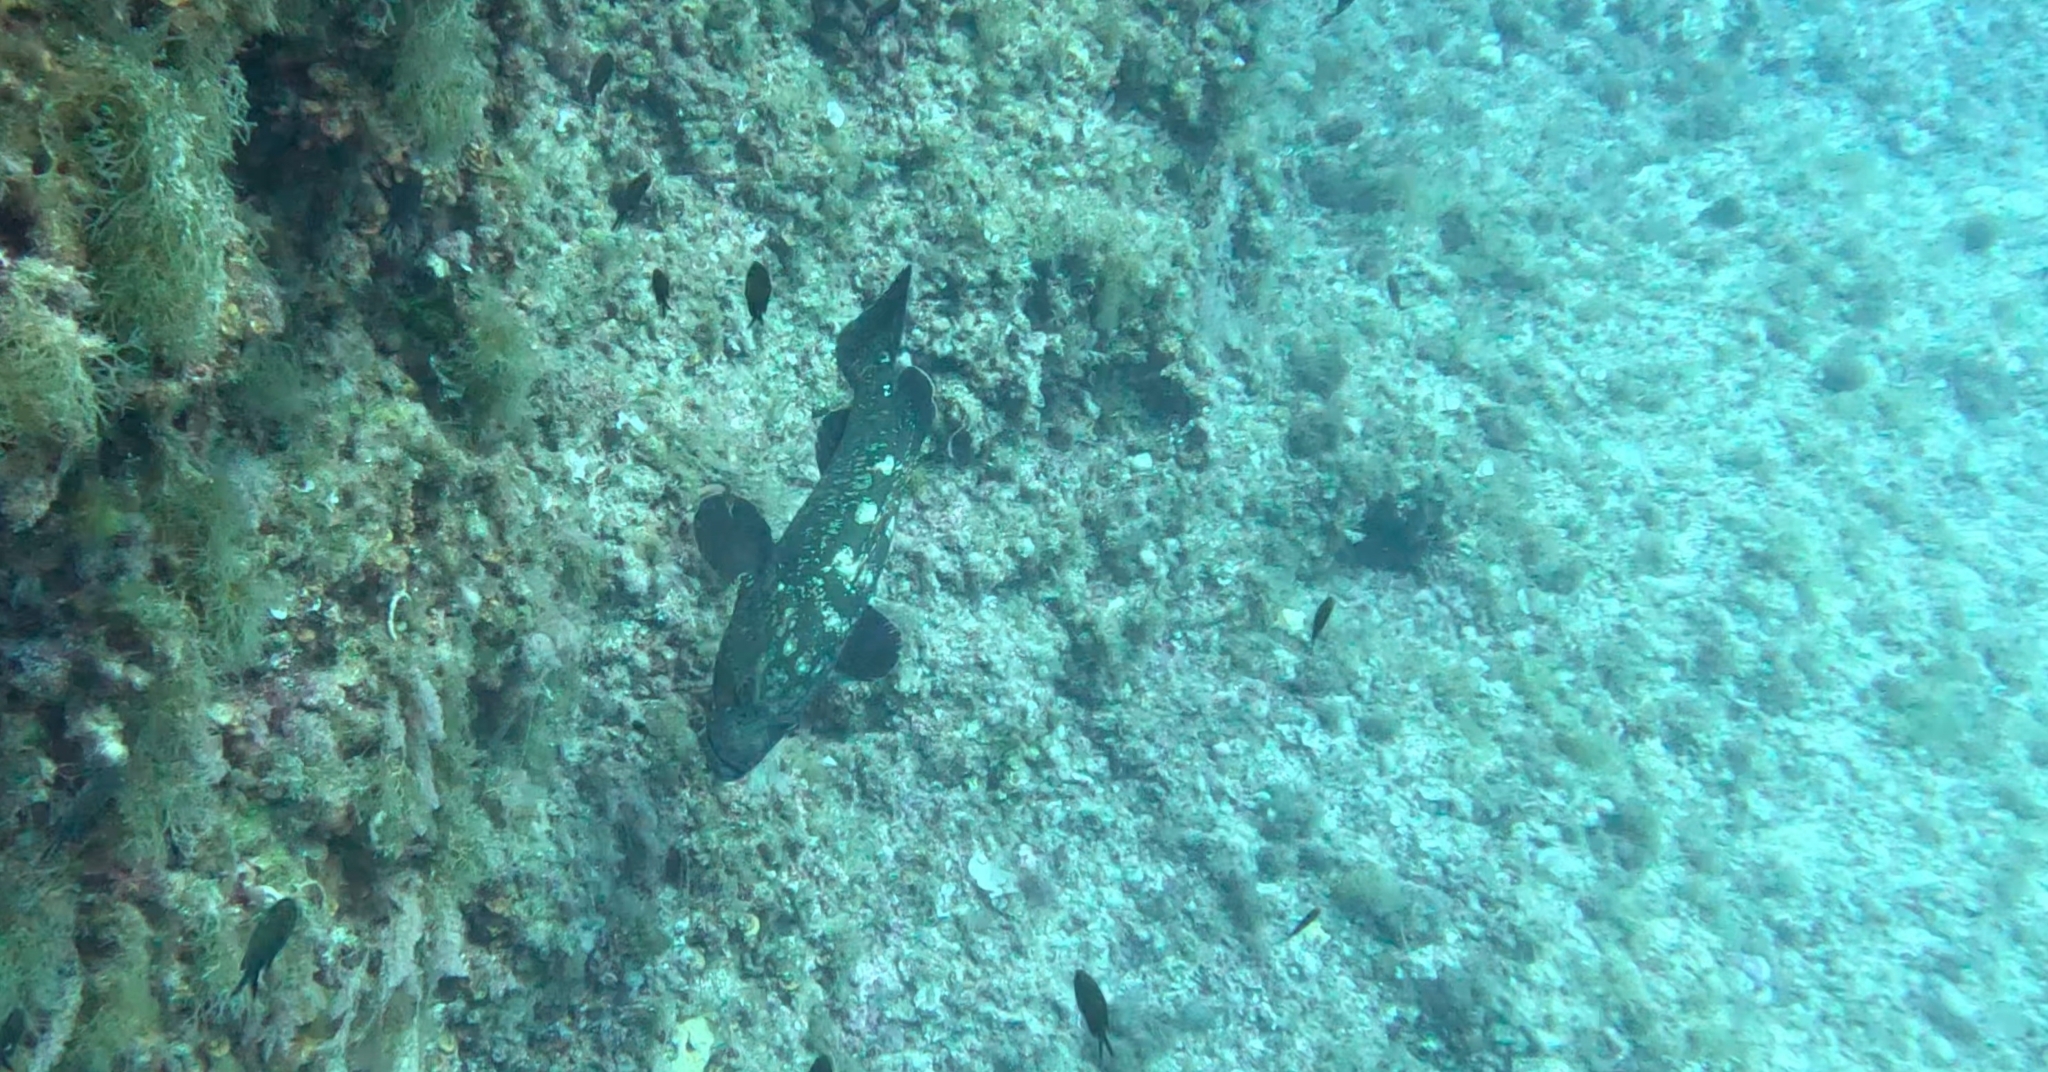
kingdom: Animalia
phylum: Chordata
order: Perciformes
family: Serranidae
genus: Epinephelus
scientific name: Epinephelus marginatus
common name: Dusky grouper
